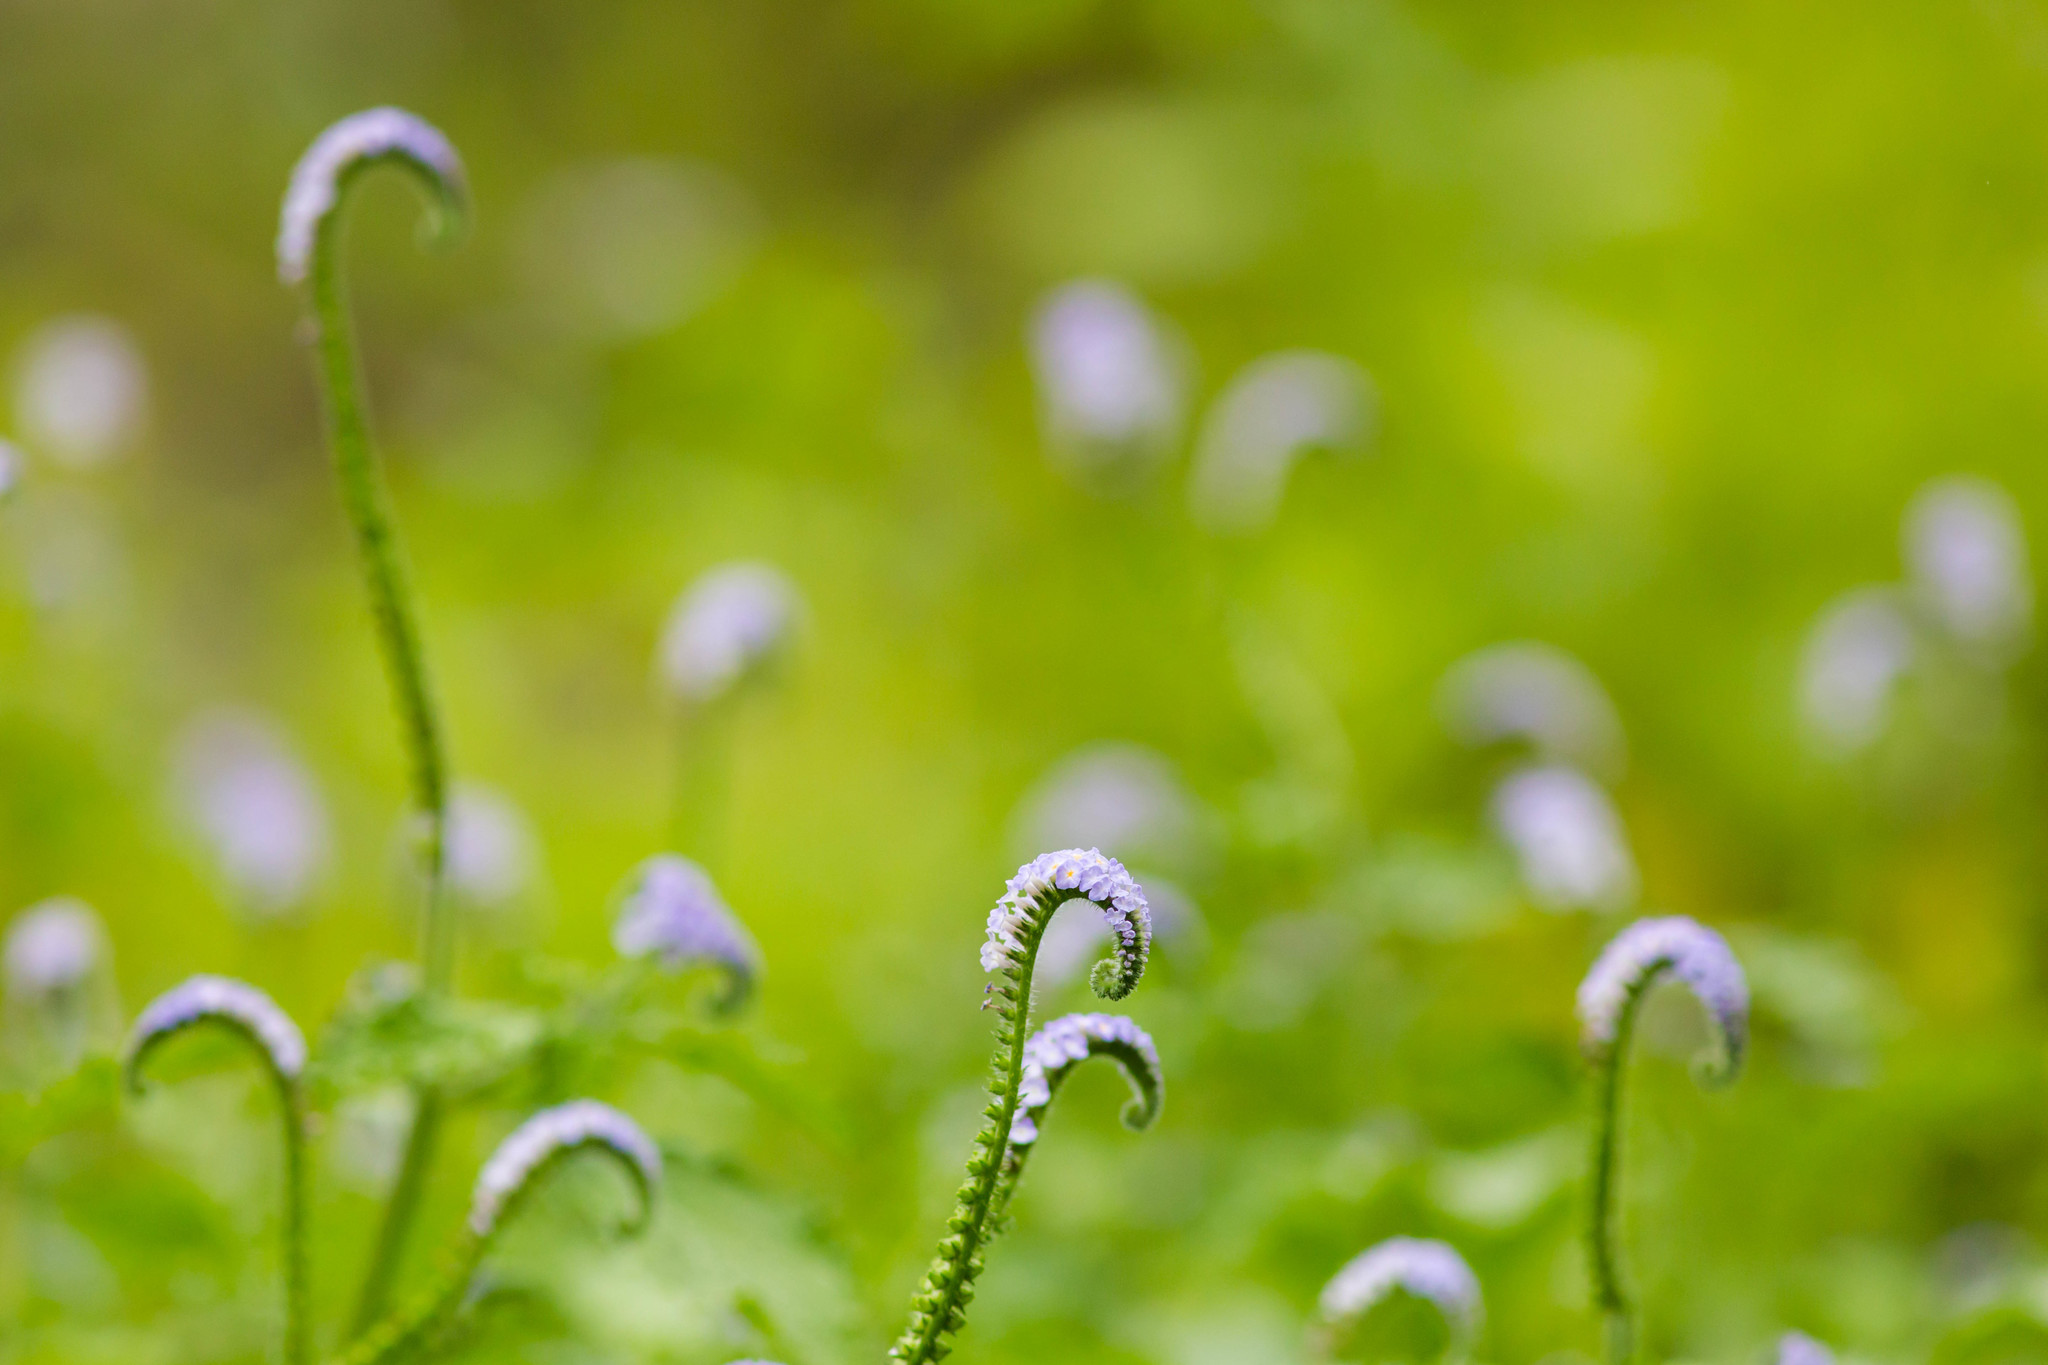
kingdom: Plantae
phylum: Tracheophyta
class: Magnoliopsida
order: Boraginales
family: Heliotropiaceae
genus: Heliotropium
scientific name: Heliotropium indicum
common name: Indian heliotrope
